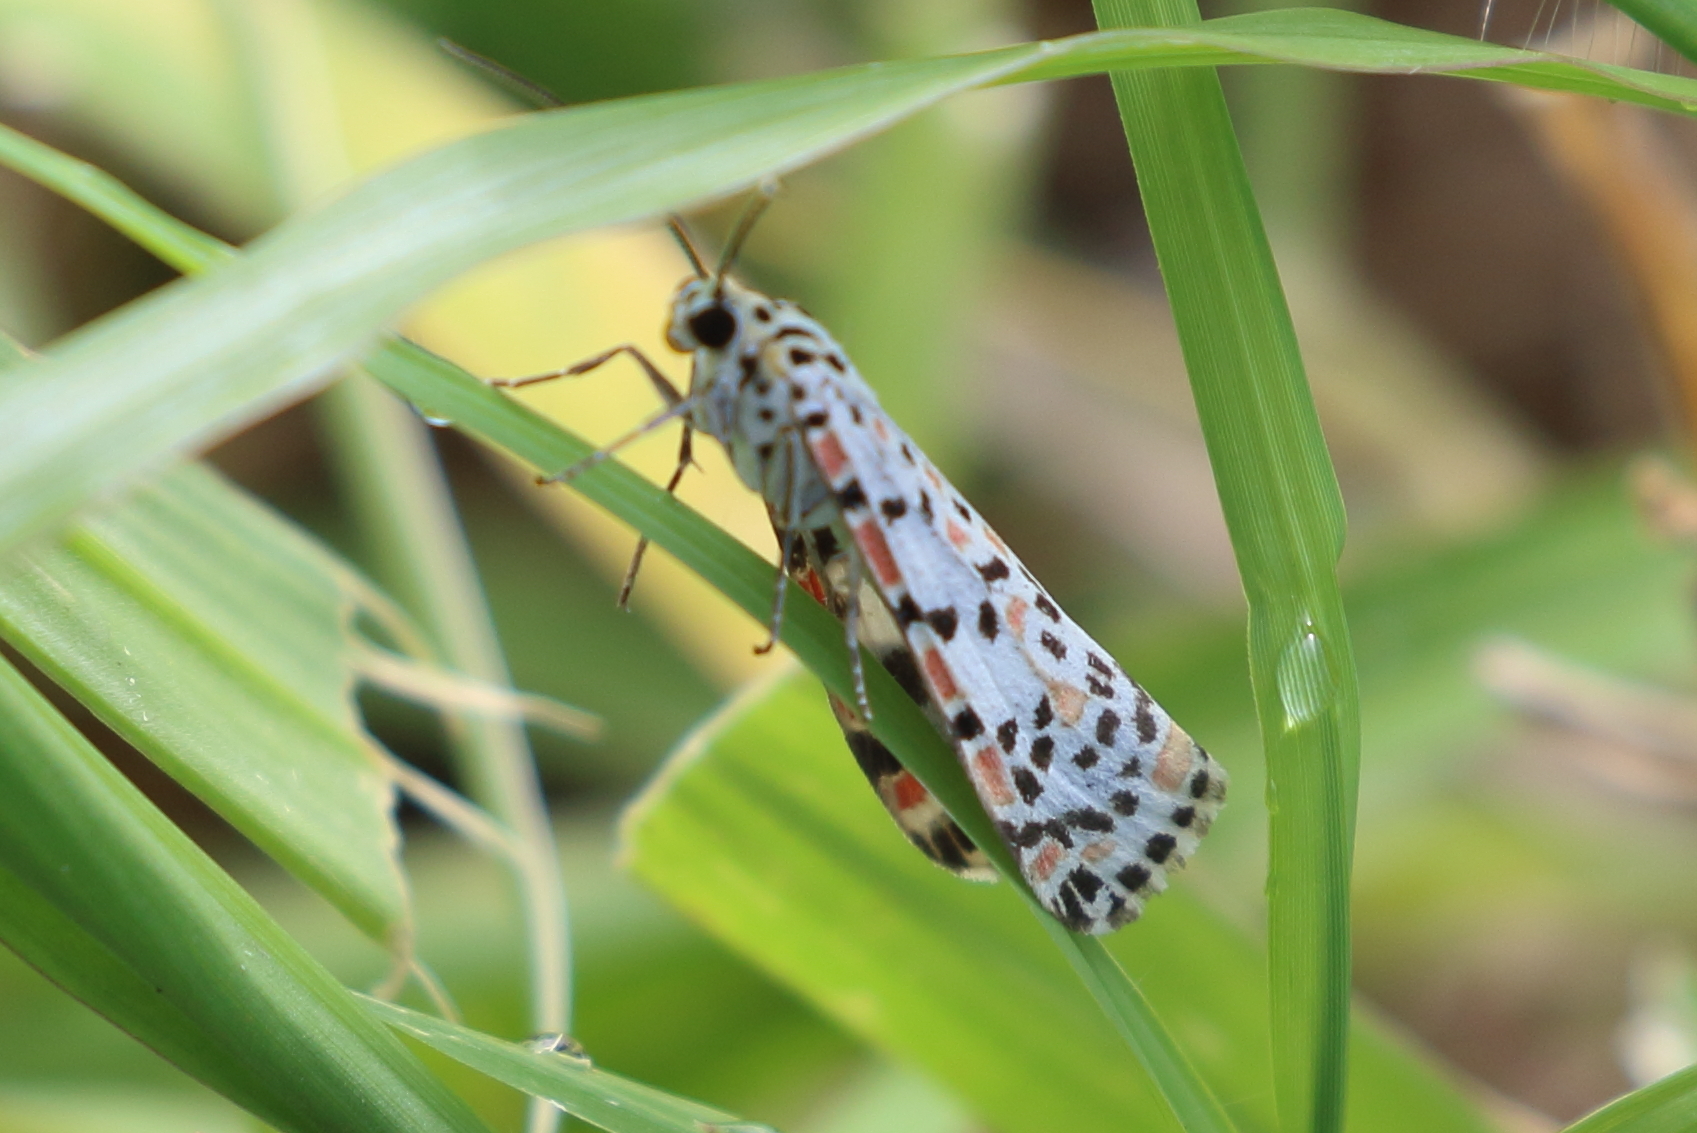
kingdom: Animalia
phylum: Arthropoda
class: Insecta
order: Lepidoptera
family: Erebidae
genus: Utetheisa
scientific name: Utetheisa pulchelloides
